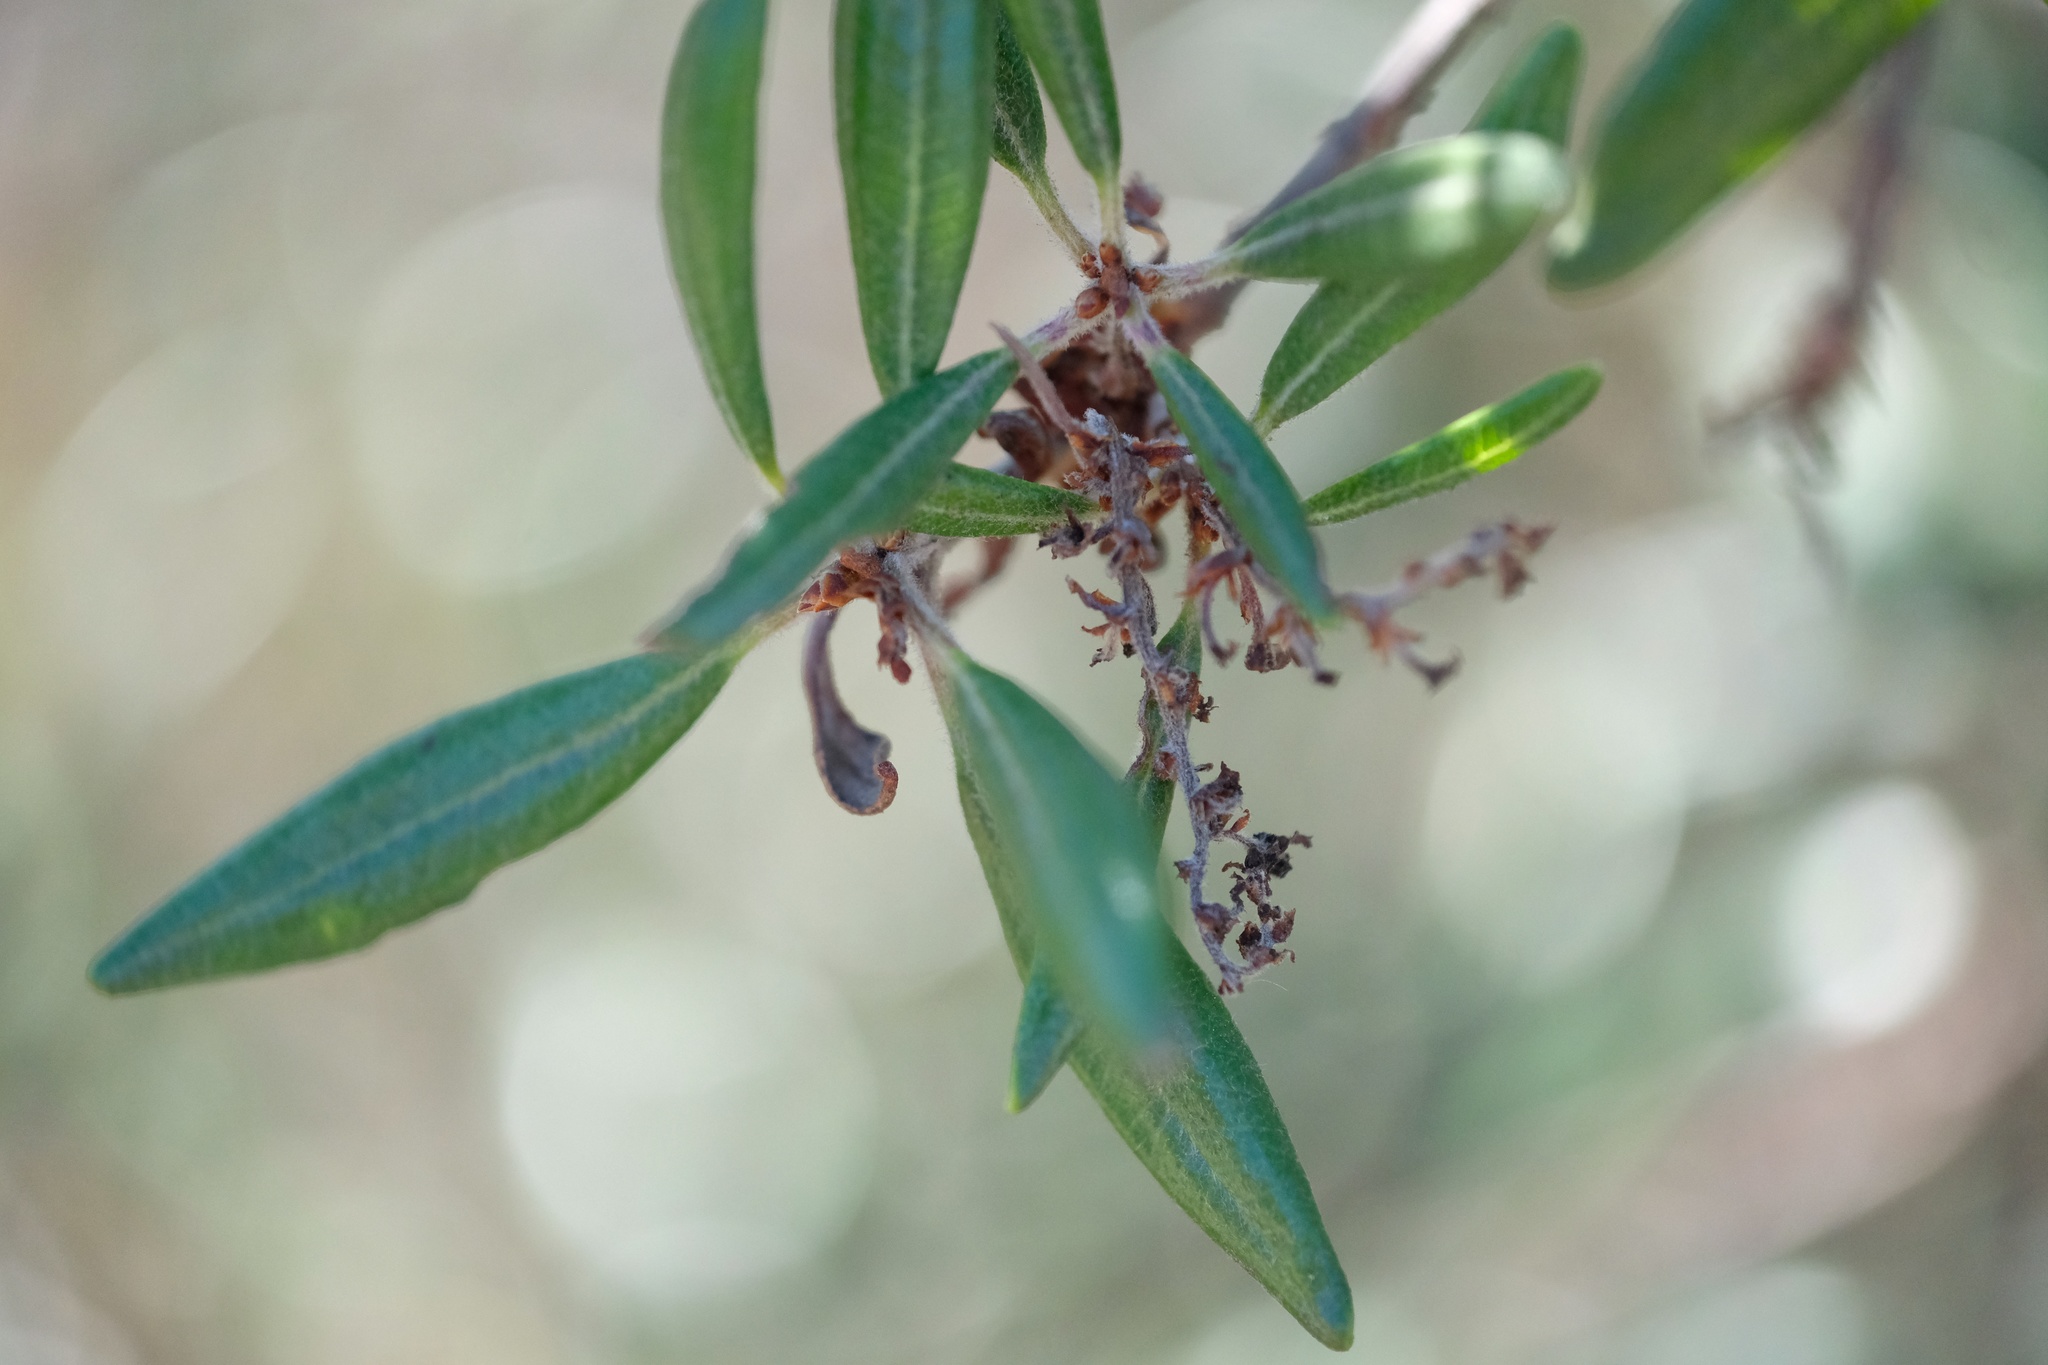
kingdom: Plantae
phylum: Tracheophyta
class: Magnoliopsida
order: Ericales
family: Ericaceae
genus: Comarostaphylis
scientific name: Comarostaphylis diversifolia
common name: Summer-holly
